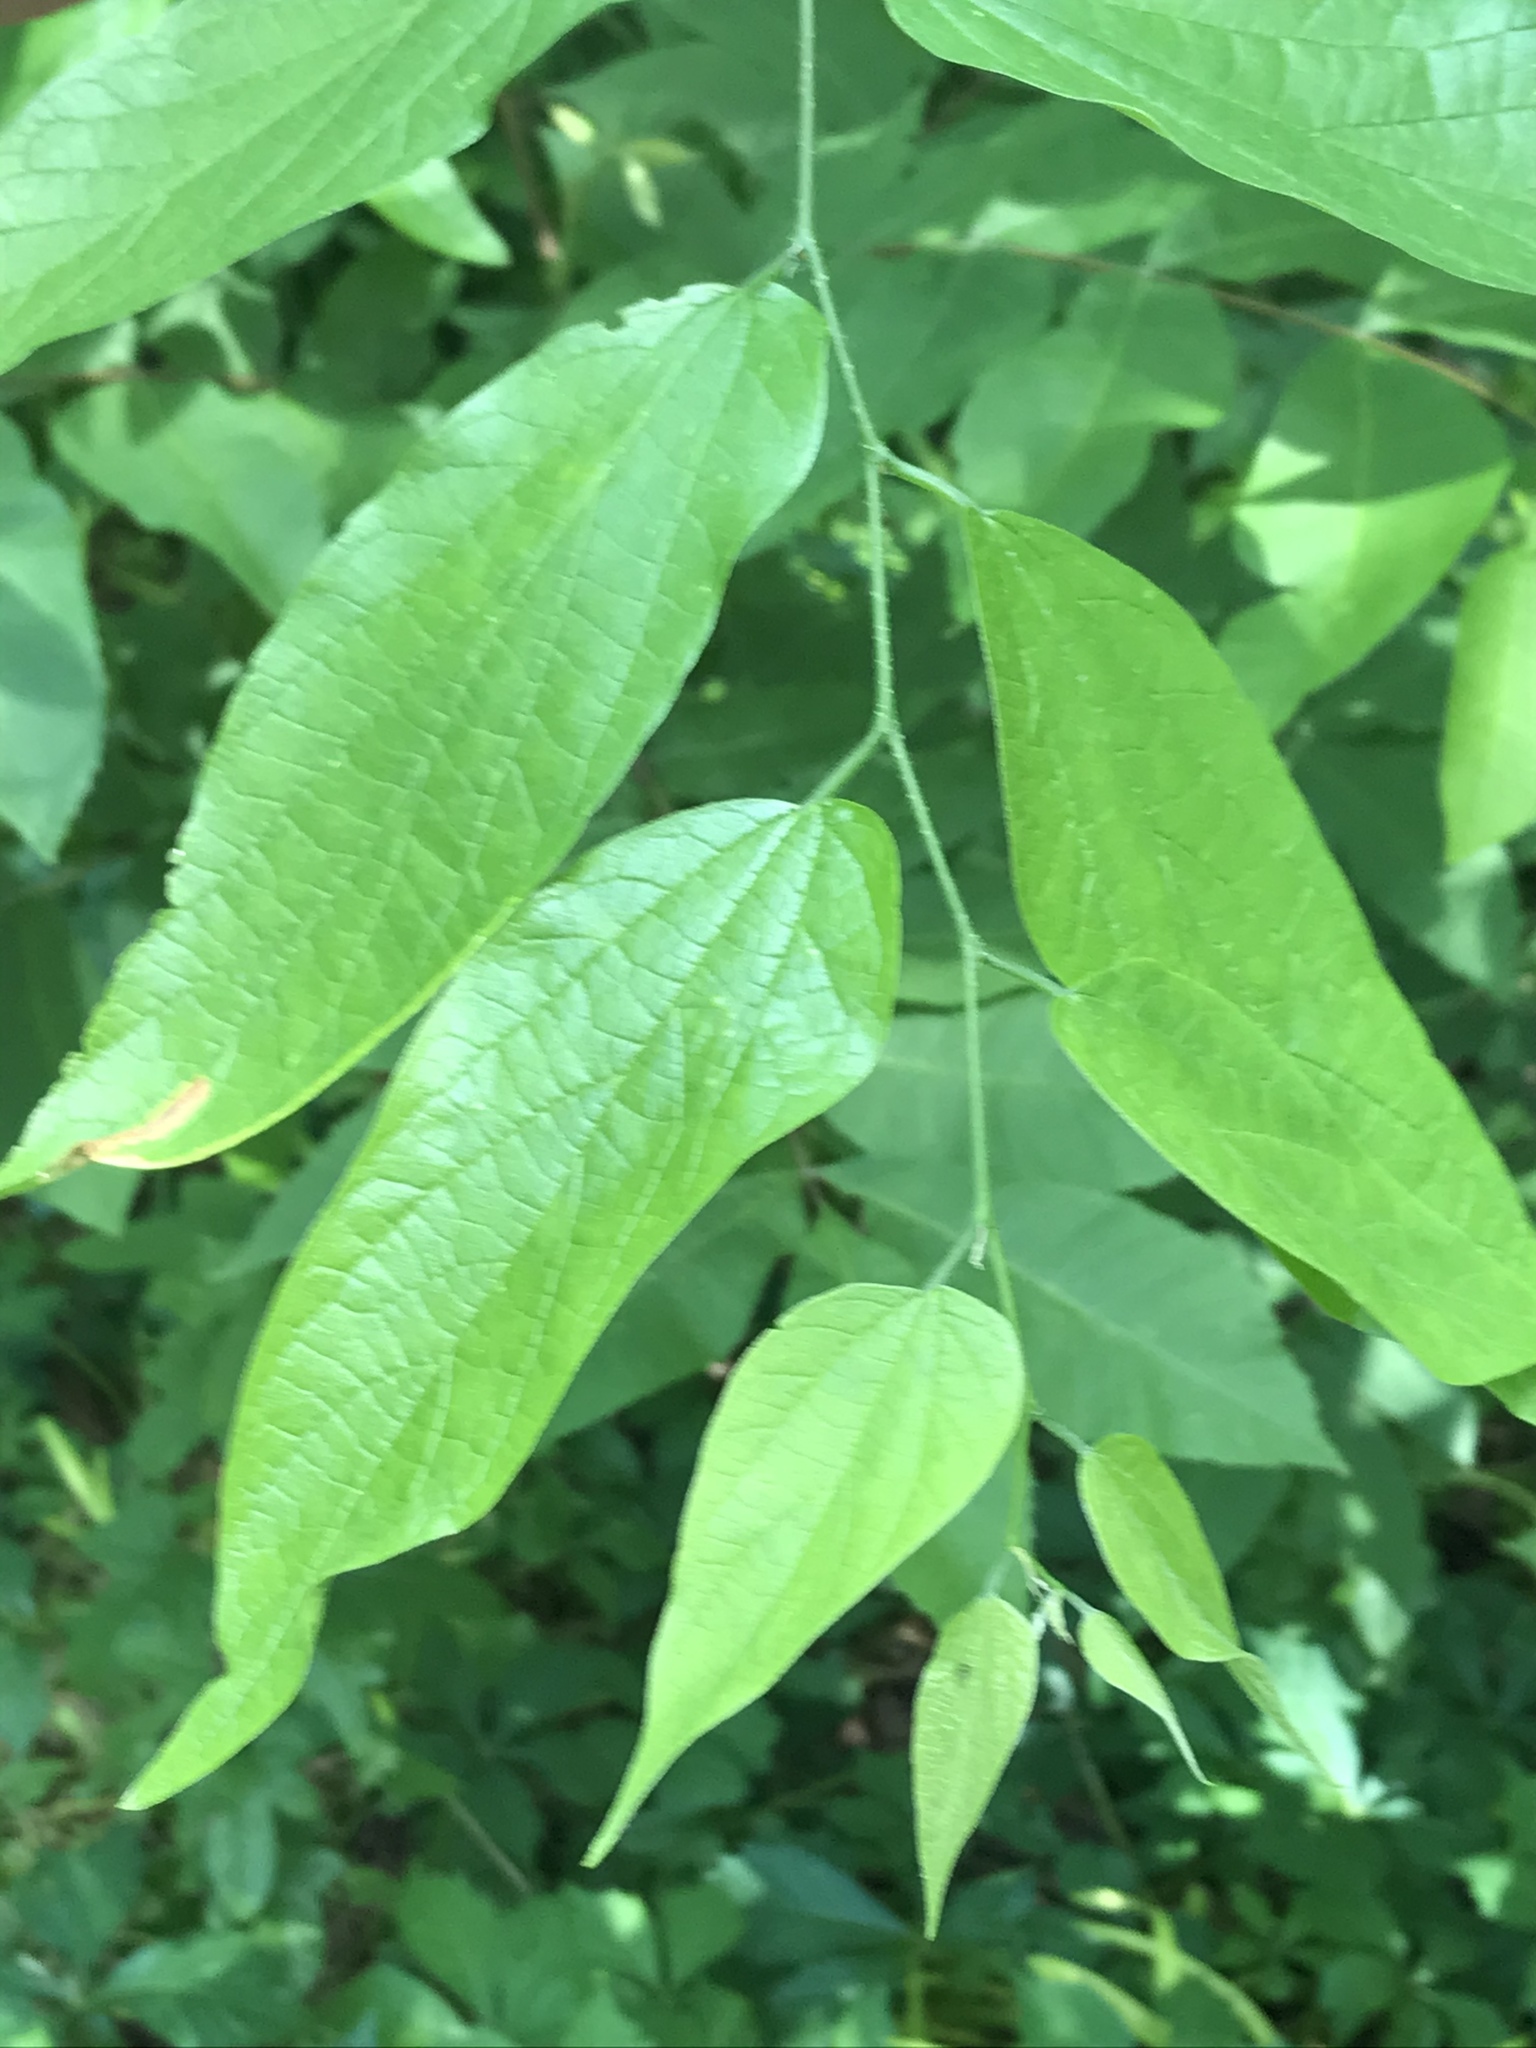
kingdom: Plantae
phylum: Tracheophyta
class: Magnoliopsida
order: Rosales
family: Cannabaceae
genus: Celtis
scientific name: Celtis laevigata
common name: Sugarberry
